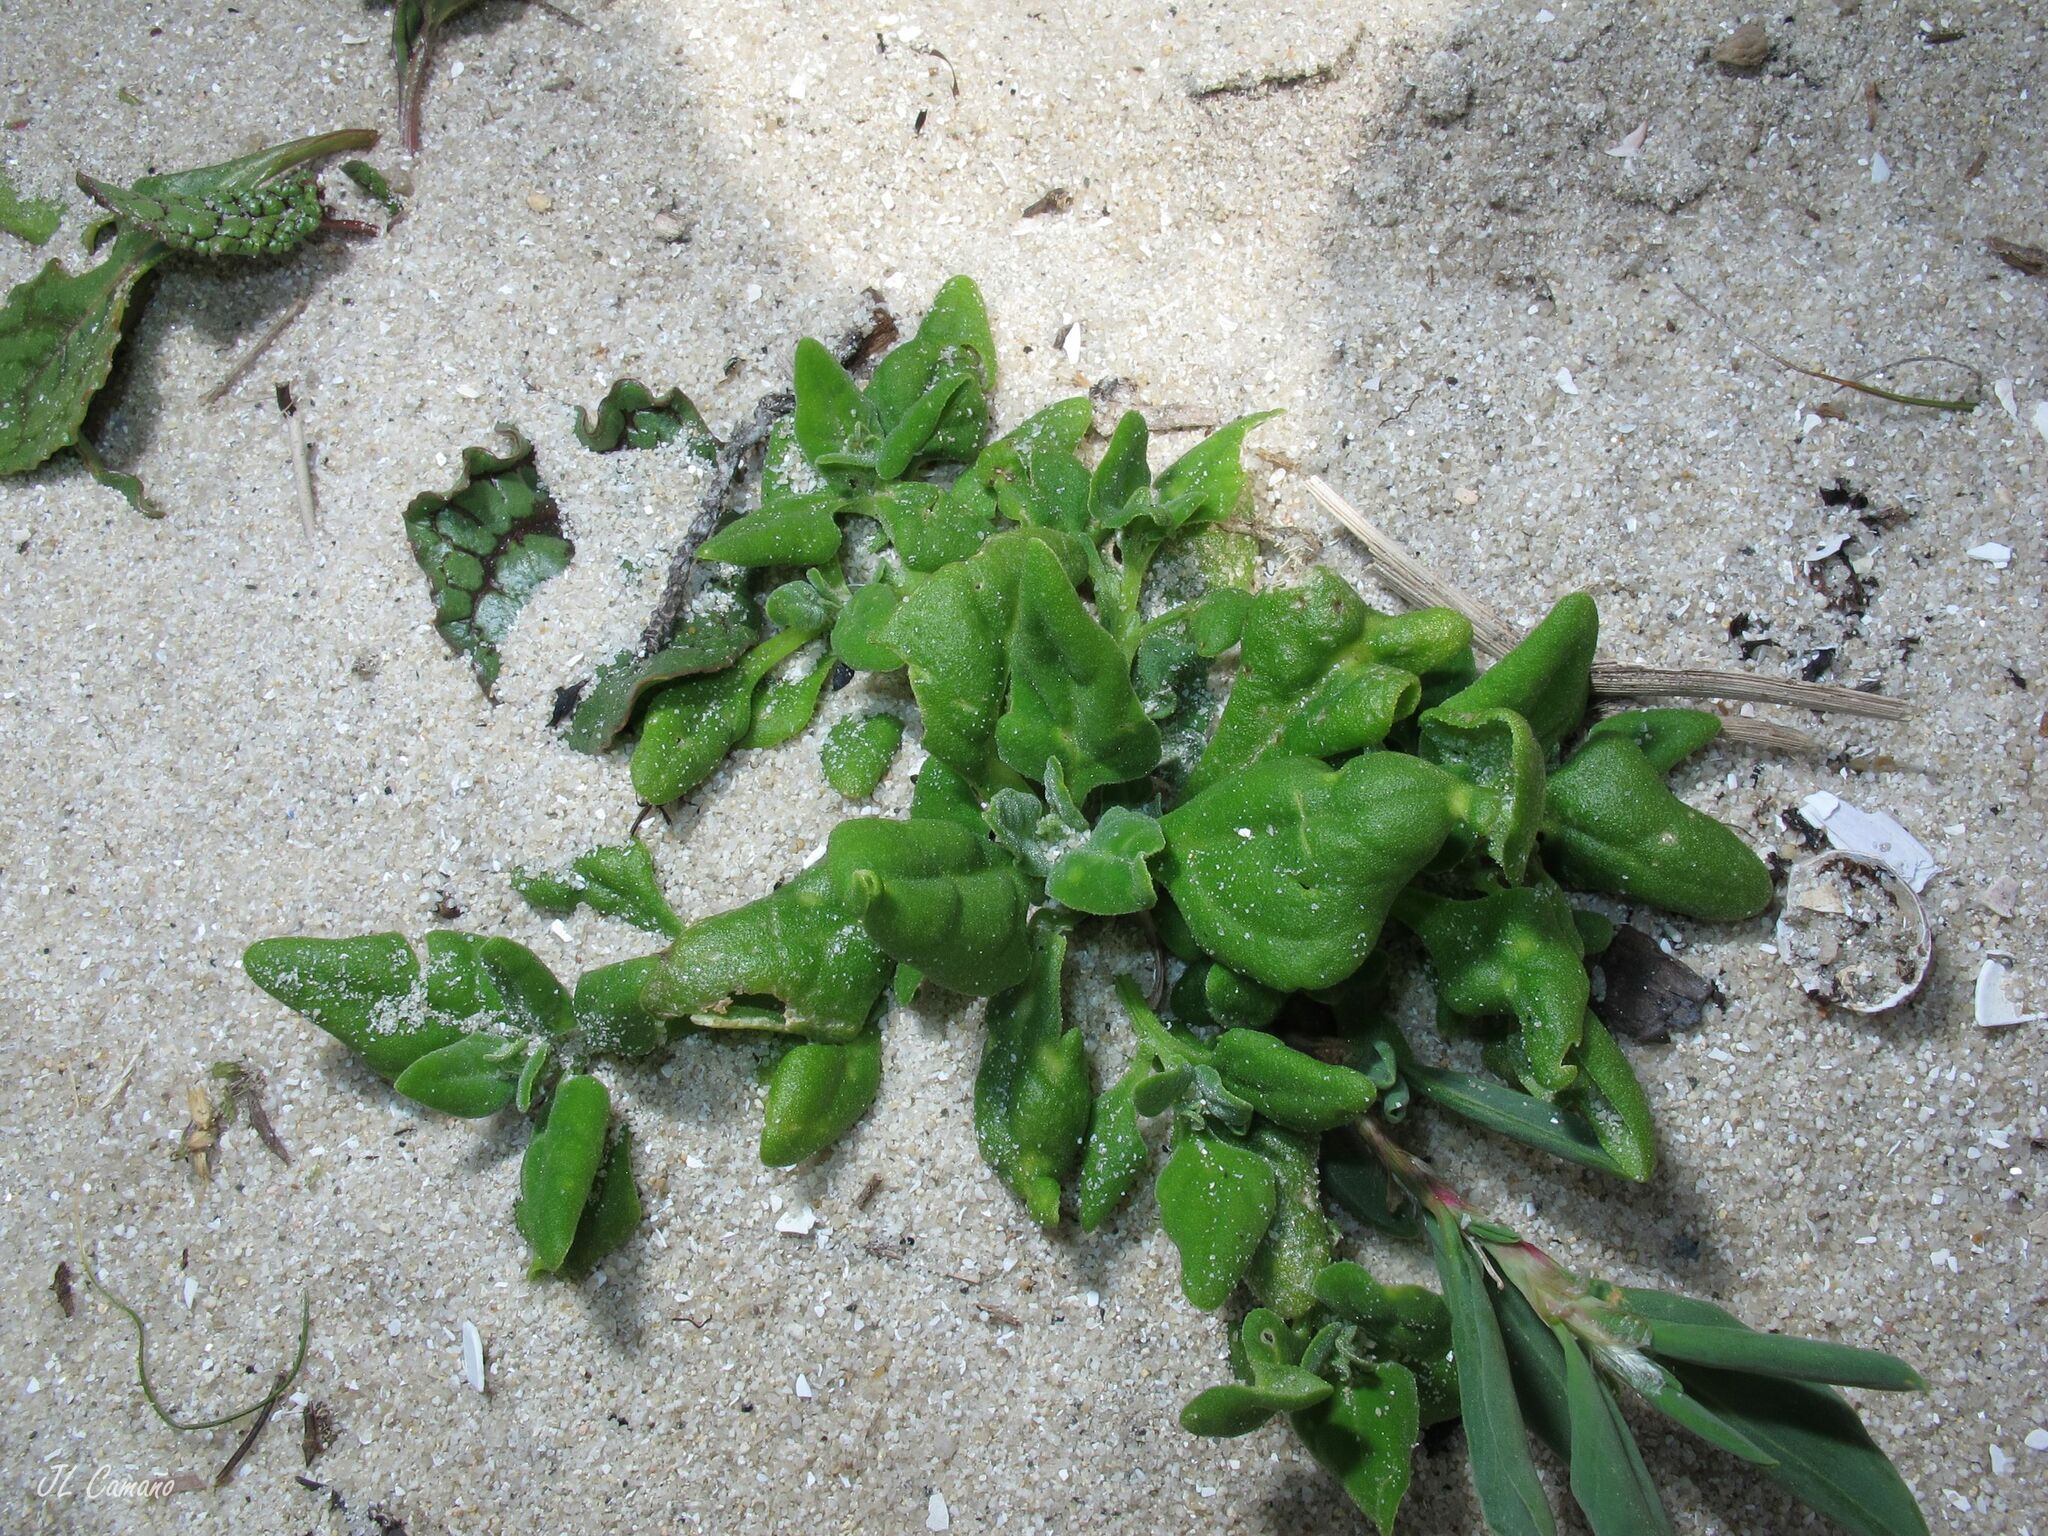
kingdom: Plantae
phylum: Tracheophyta
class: Magnoliopsida
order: Caryophyllales
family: Aizoaceae
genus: Tetragonia
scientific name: Tetragonia tetragonoides
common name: New zealand-spinach
